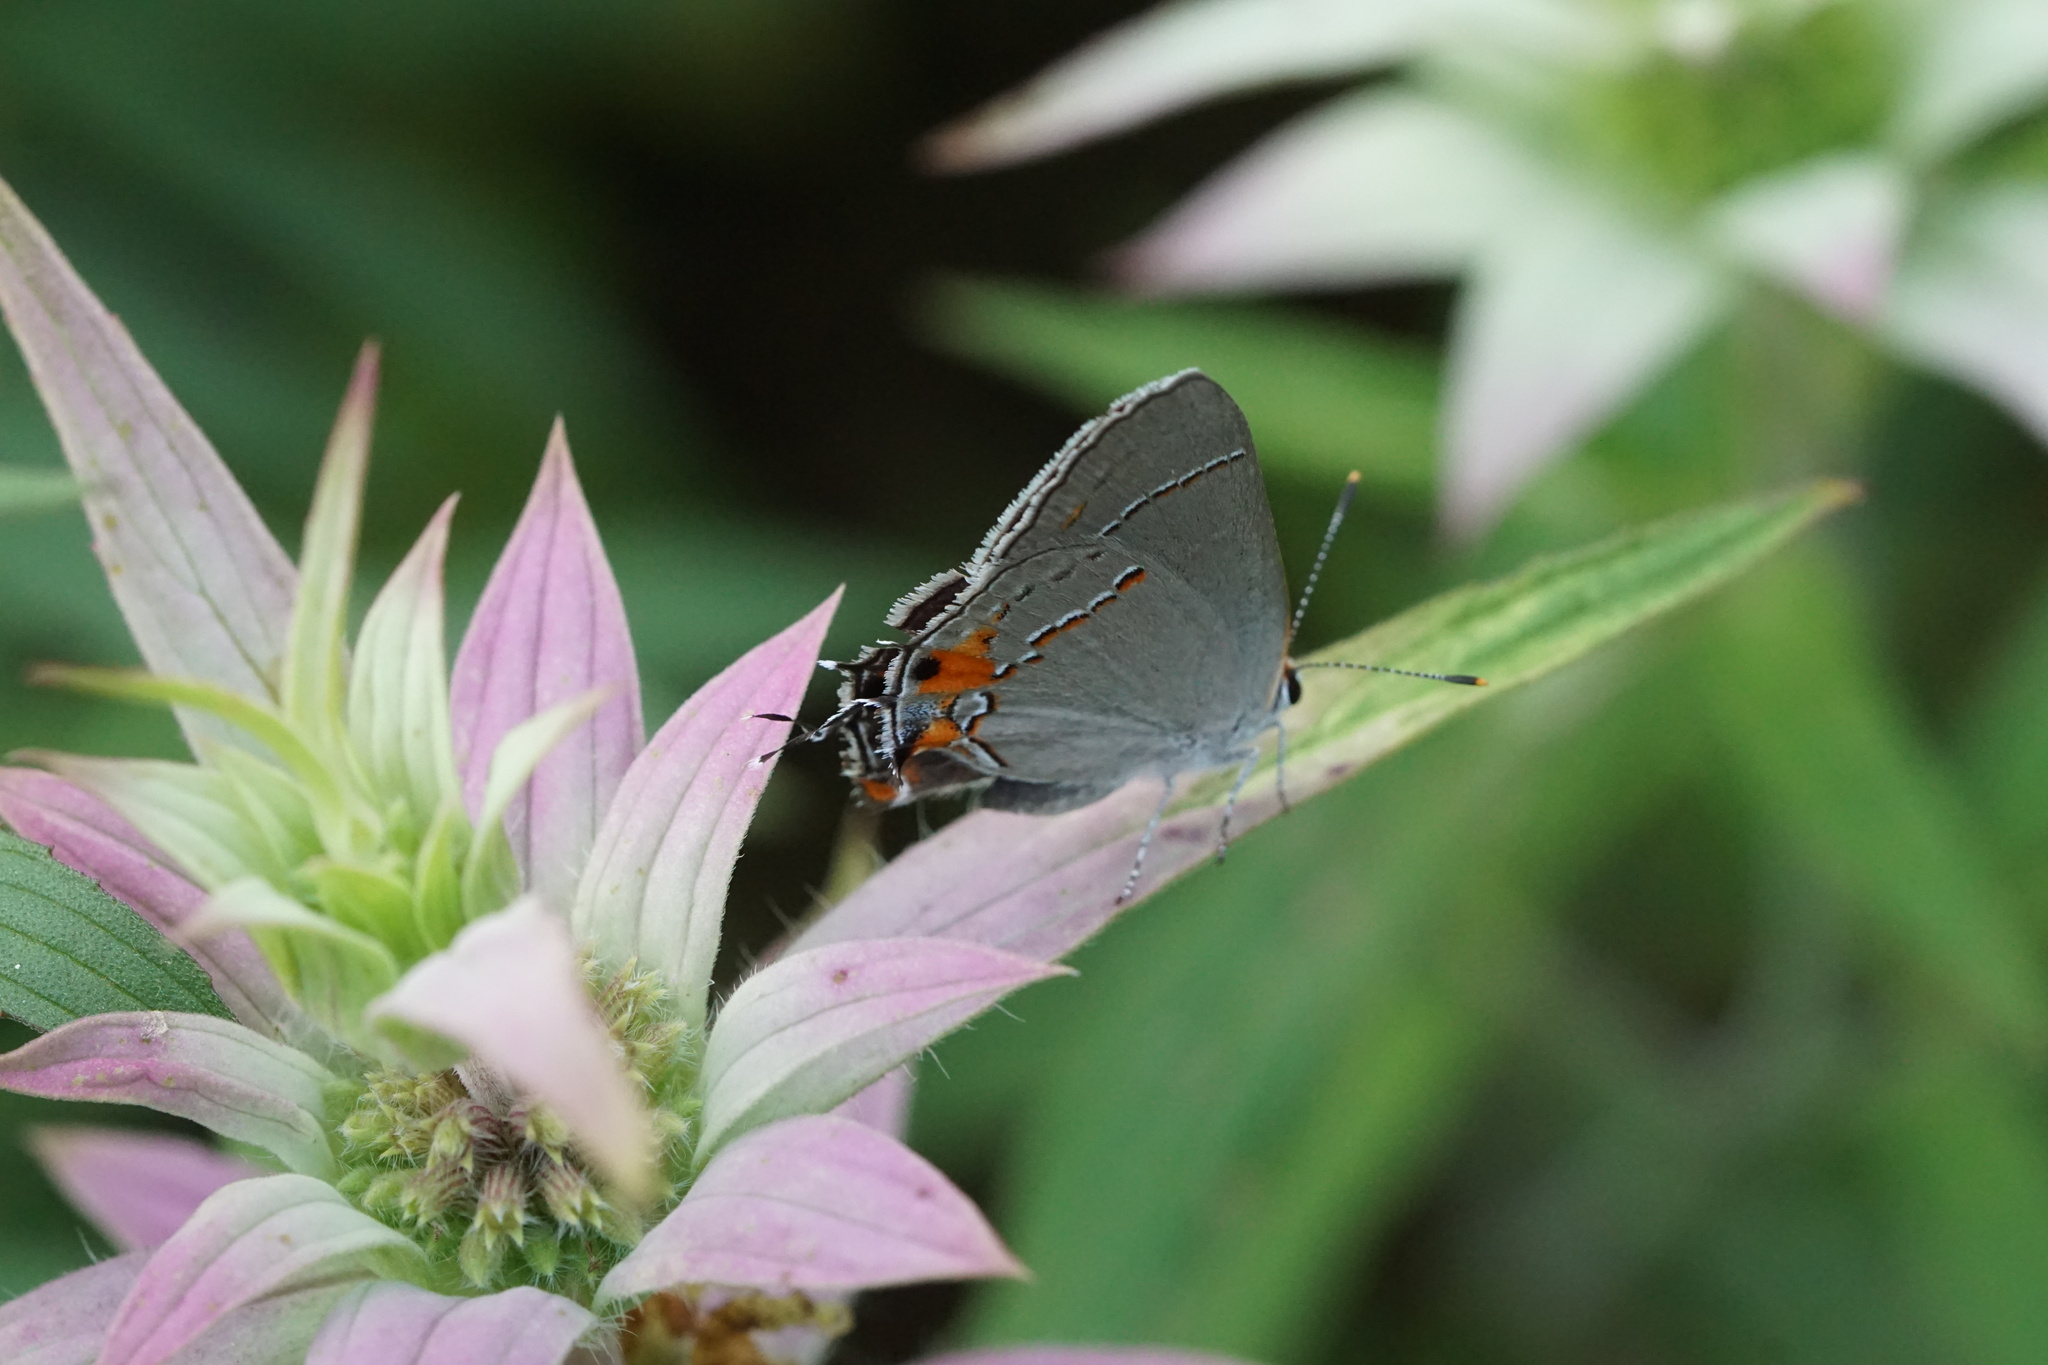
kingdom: Animalia
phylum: Arthropoda
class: Insecta
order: Lepidoptera
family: Lycaenidae
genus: Strymon
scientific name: Strymon melinus
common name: Gray hairstreak
